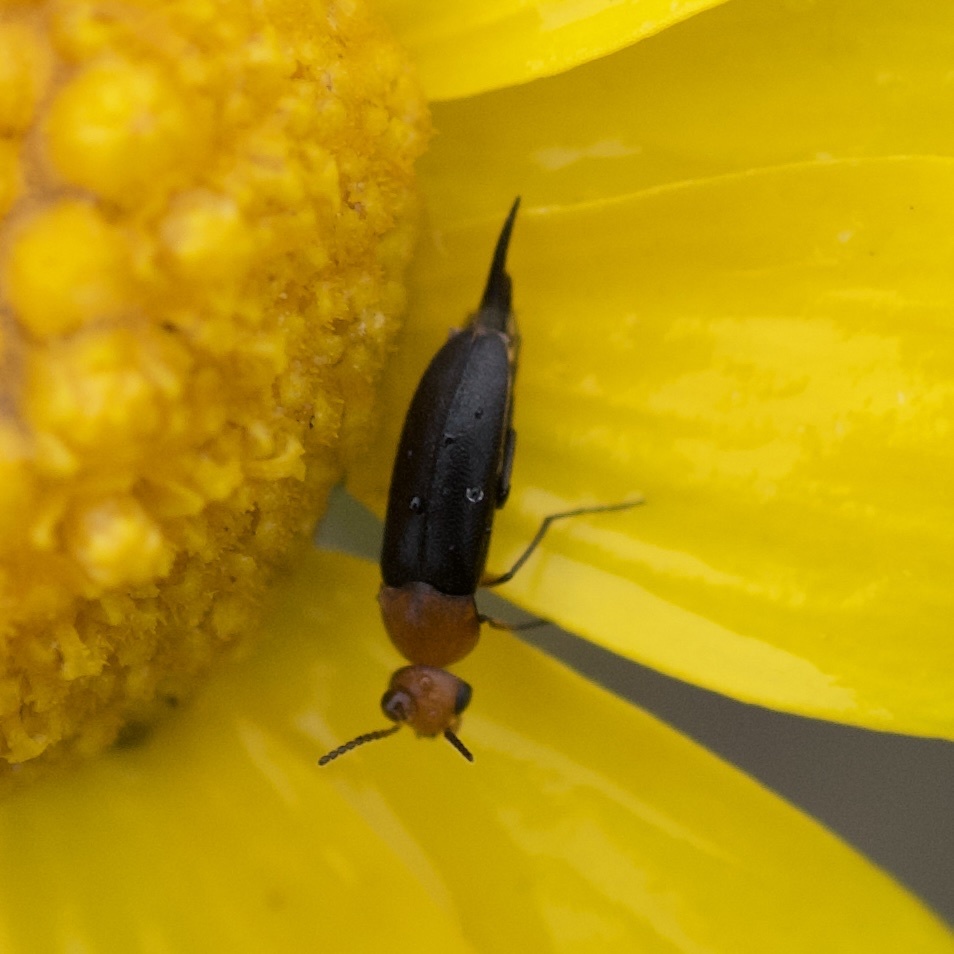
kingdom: Animalia
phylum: Arthropoda
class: Insecta
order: Coleoptera
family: Mordellidae
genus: Mordellistena
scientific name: Mordellistena cervicalis
